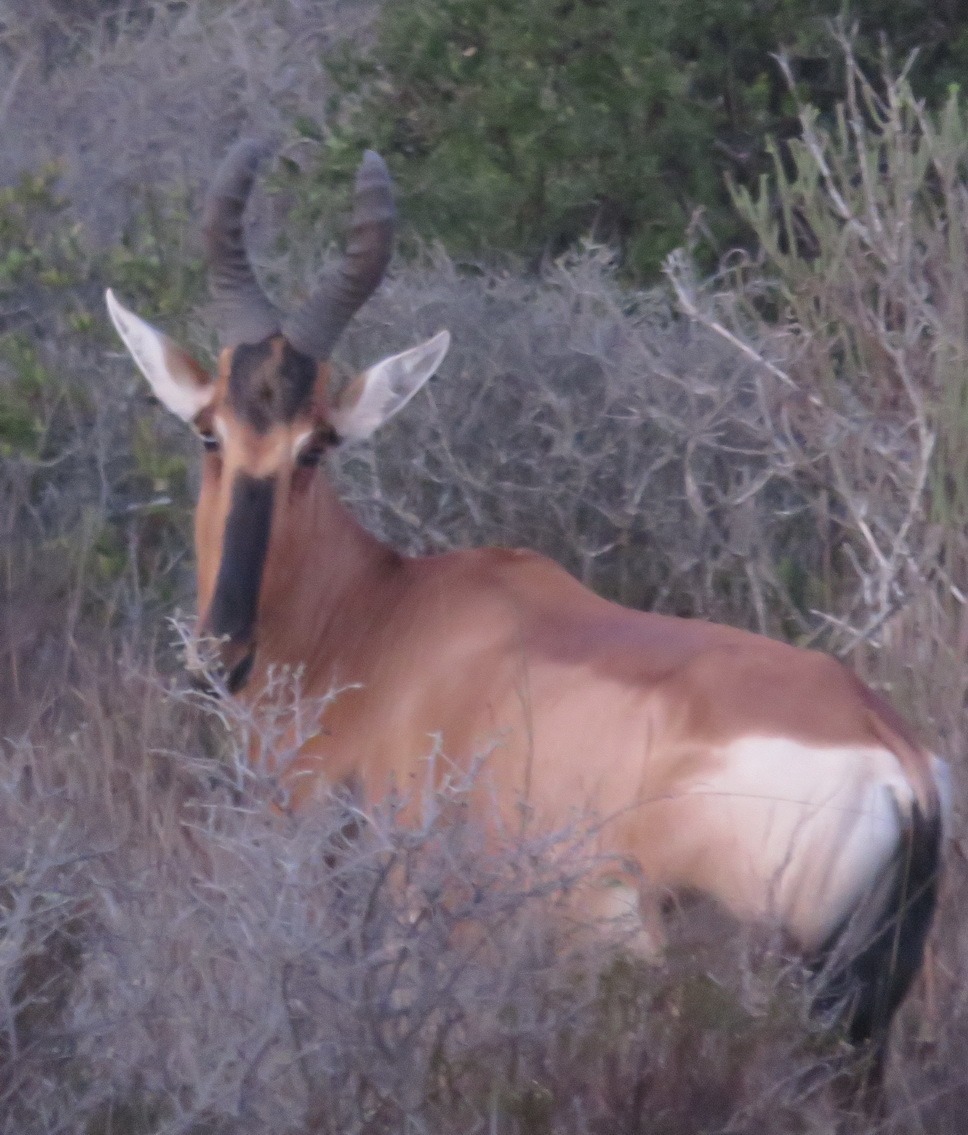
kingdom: Animalia
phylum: Chordata
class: Mammalia
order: Artiodactyla
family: Bovidae
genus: Alcelaphus
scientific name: Alcelaphus caama
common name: Red hartebeest
